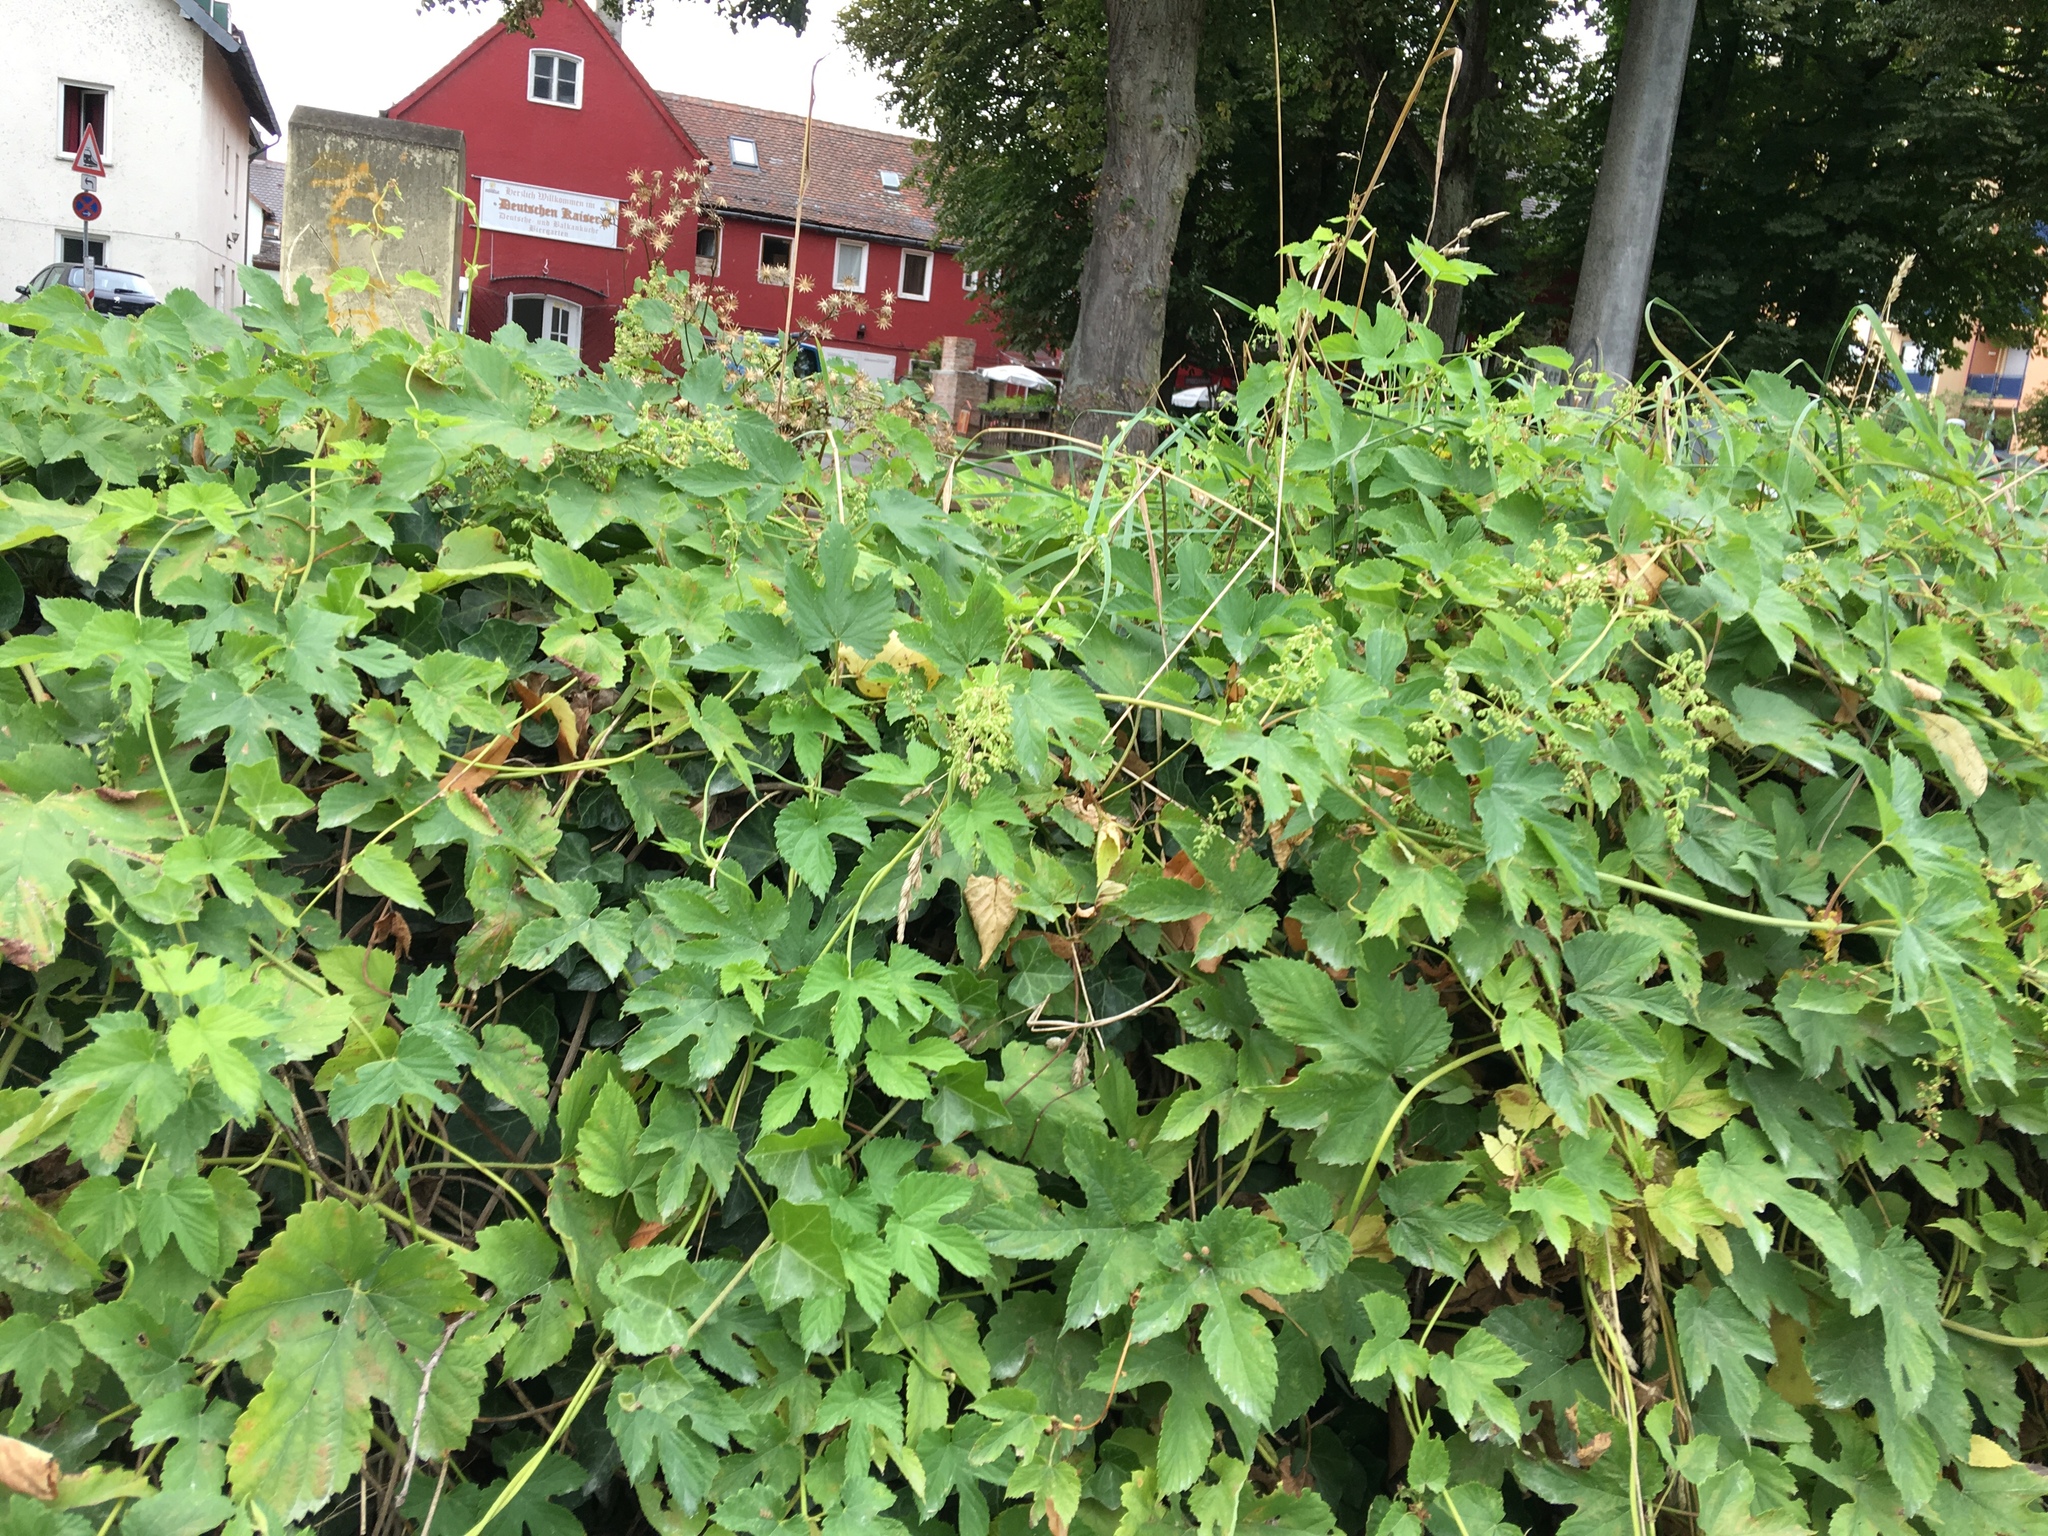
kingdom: Plantae
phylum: Tracheophyta
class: Magnoliopsida
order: Rosales
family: Cannabaceae
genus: Humulus
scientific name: Humulus lupulus
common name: Hop
